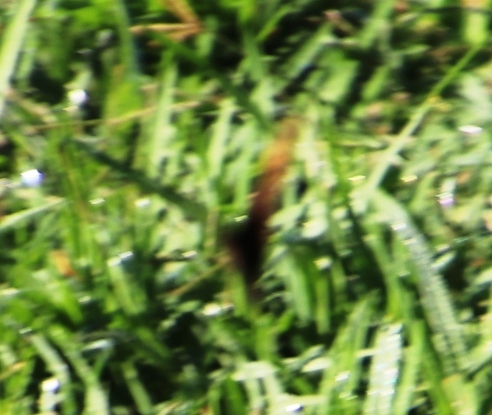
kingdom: Animalia
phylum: Arthropoda
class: Insecta
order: Lepidoptera
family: Nymphalidae
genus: Dira
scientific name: Dira clytus
